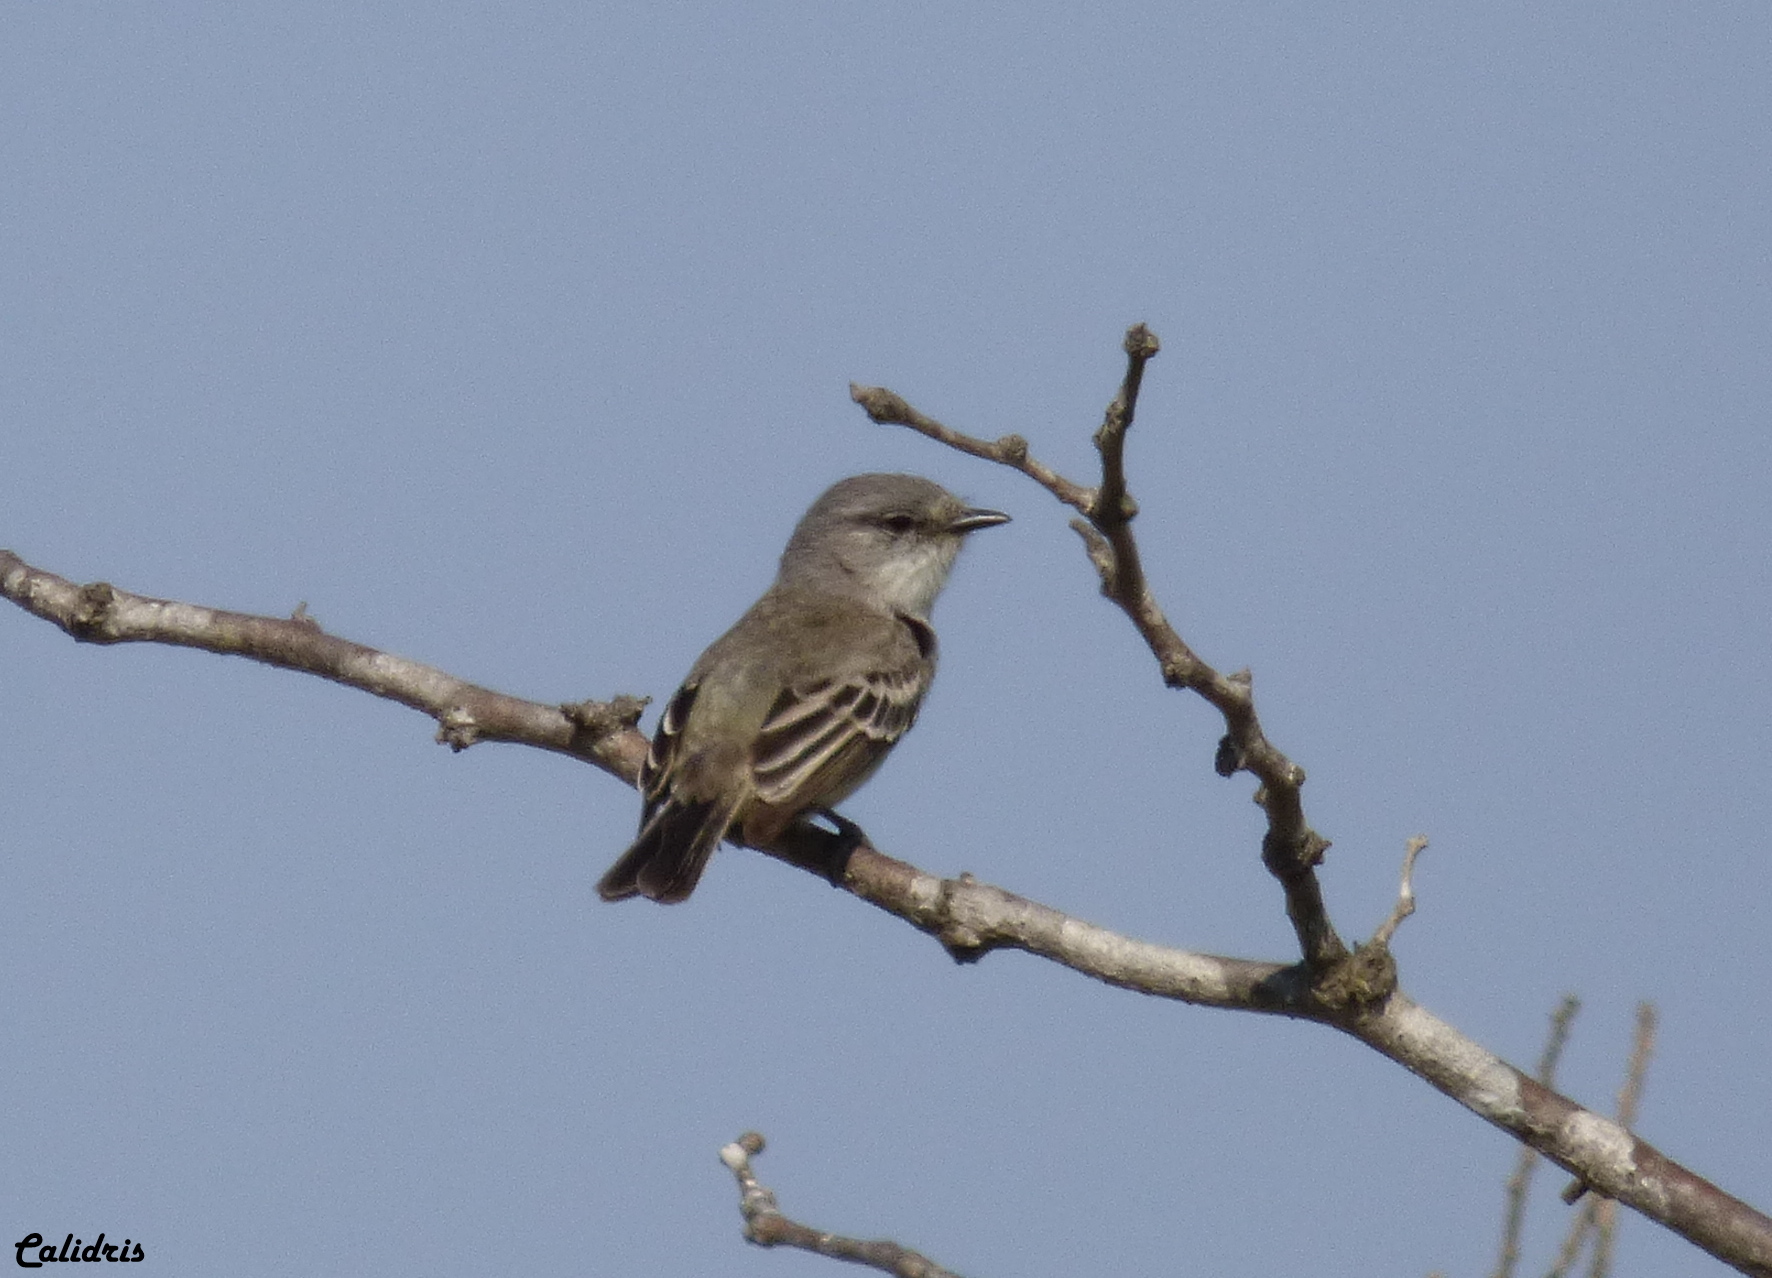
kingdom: Animalia
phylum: Chordata
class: Aves
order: Passeriformes
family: Tyrannidae
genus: Suiriri
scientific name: Suiriri suiriri
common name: Suiriri flycatcher
